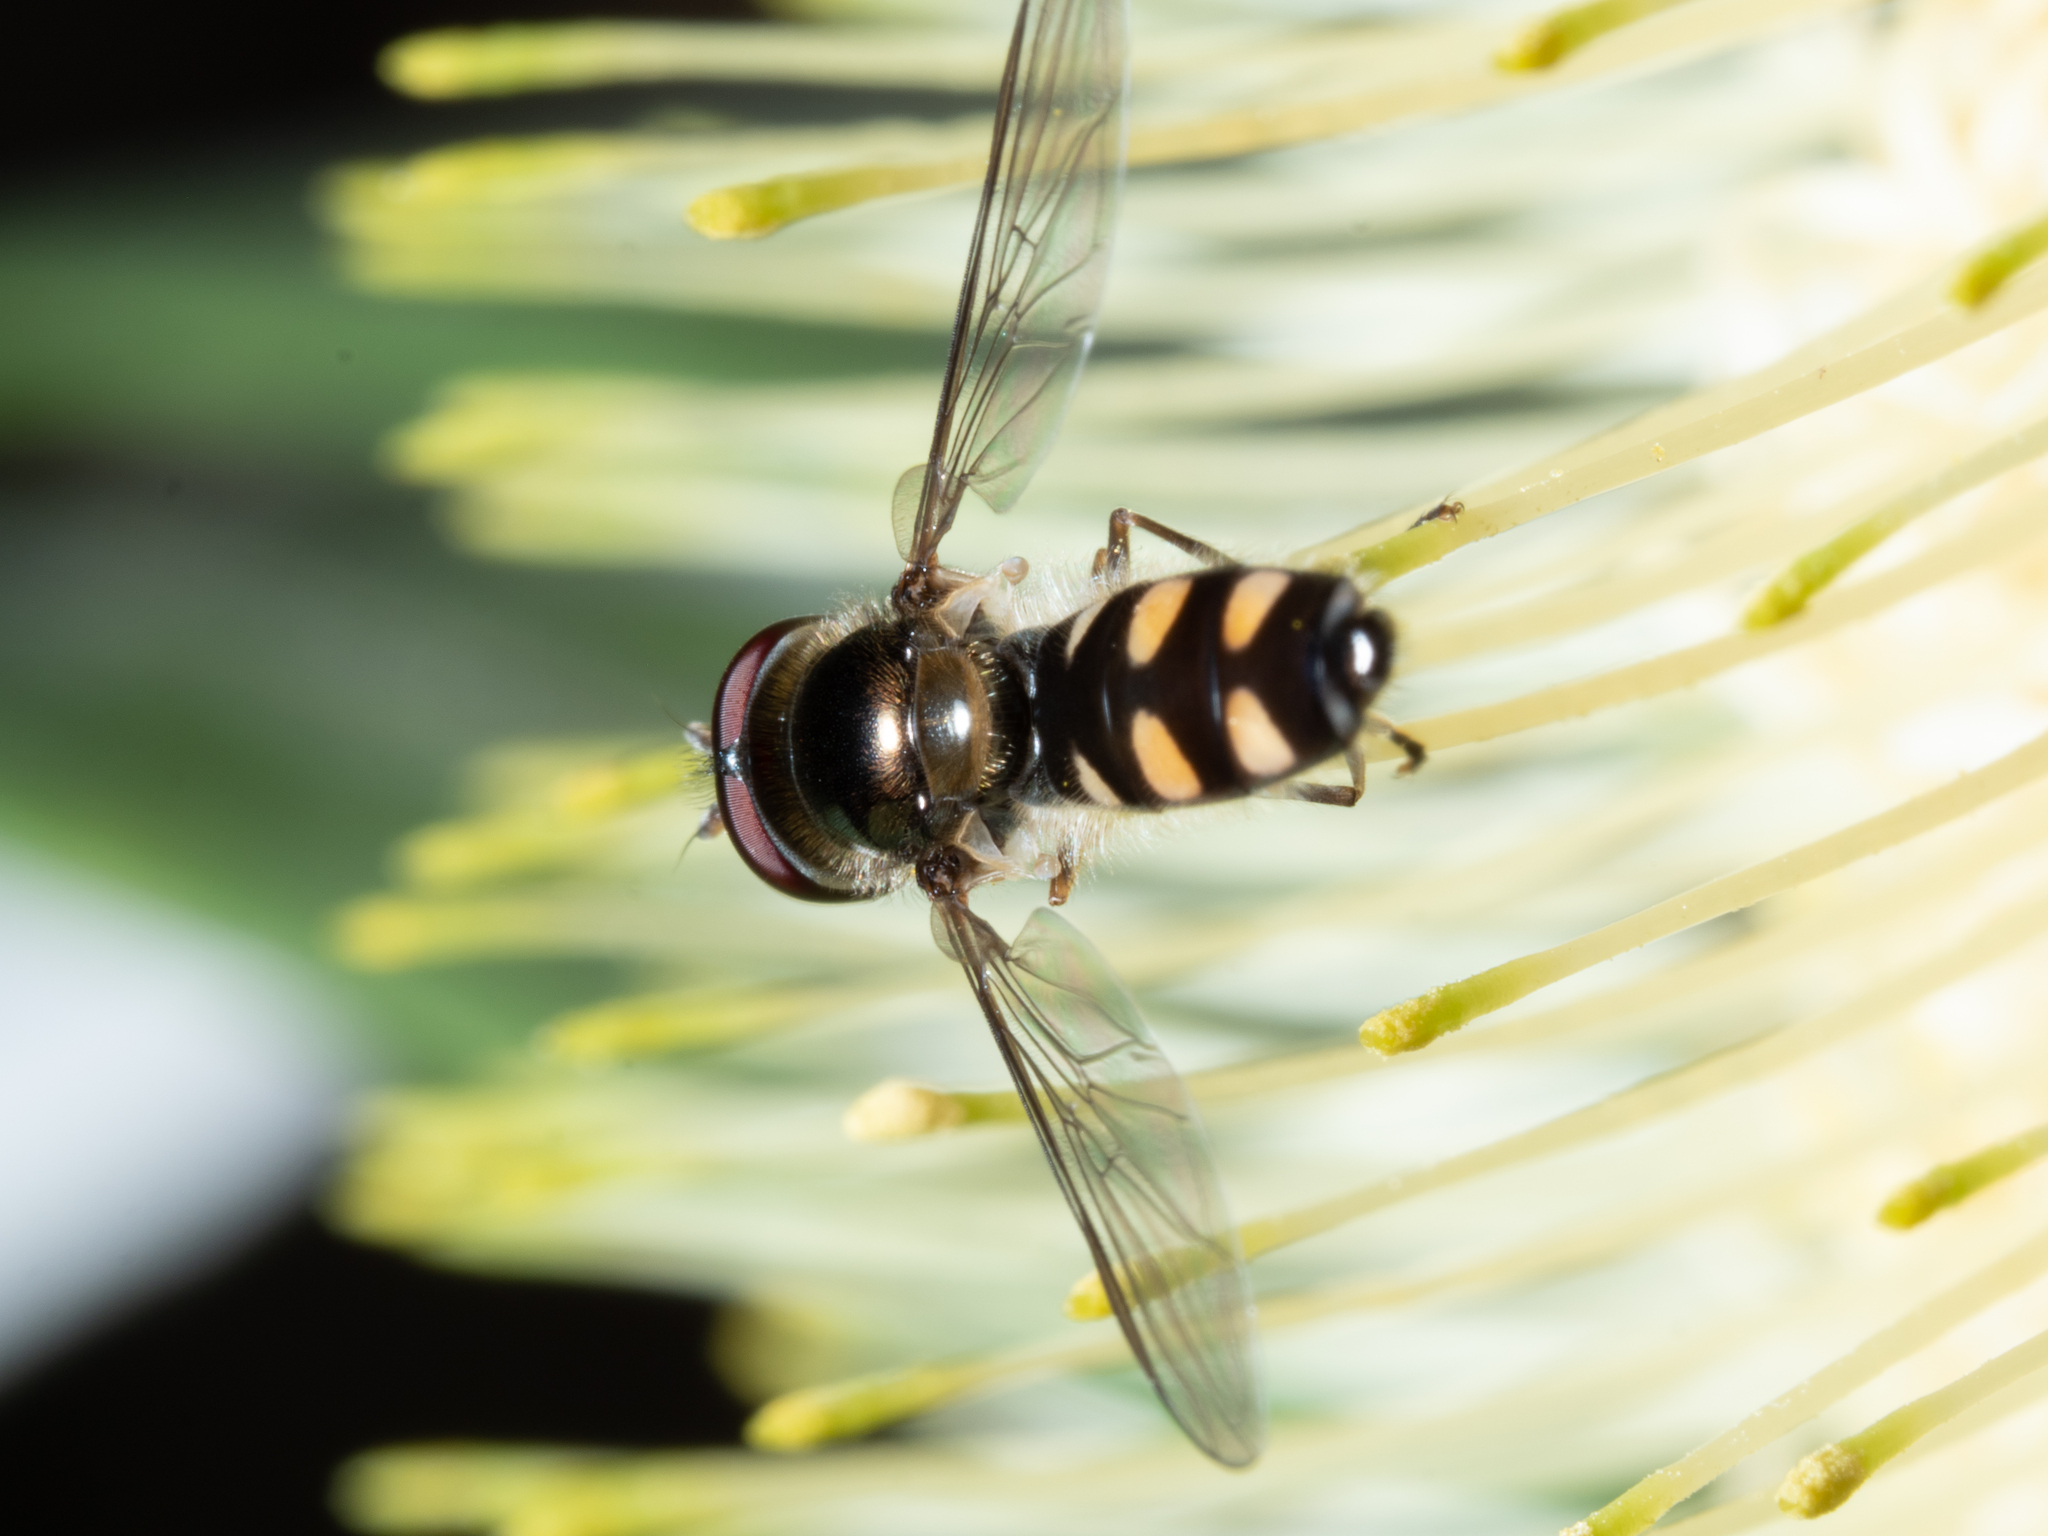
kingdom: Animalia
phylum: Arthropoda
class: Insecta
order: Diptera
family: Syrphidae
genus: Melangyna
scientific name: Melangyna viridiceps
